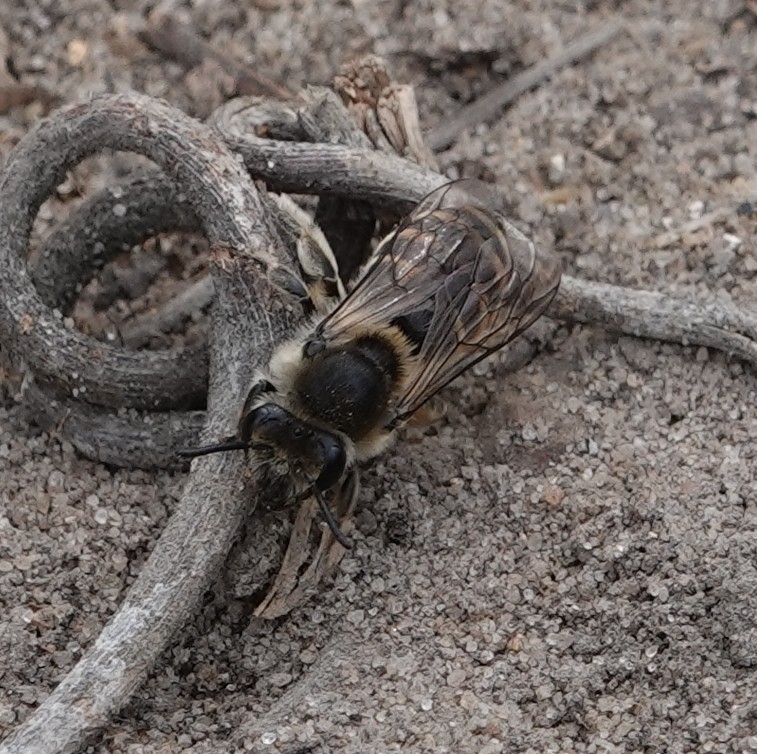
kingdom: Animalia
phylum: Arthropoda
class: Insecta
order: Hymenoptera
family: Colletidae
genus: Colletes
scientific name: Colletes inaequalis
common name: Unequal cellophane bee
